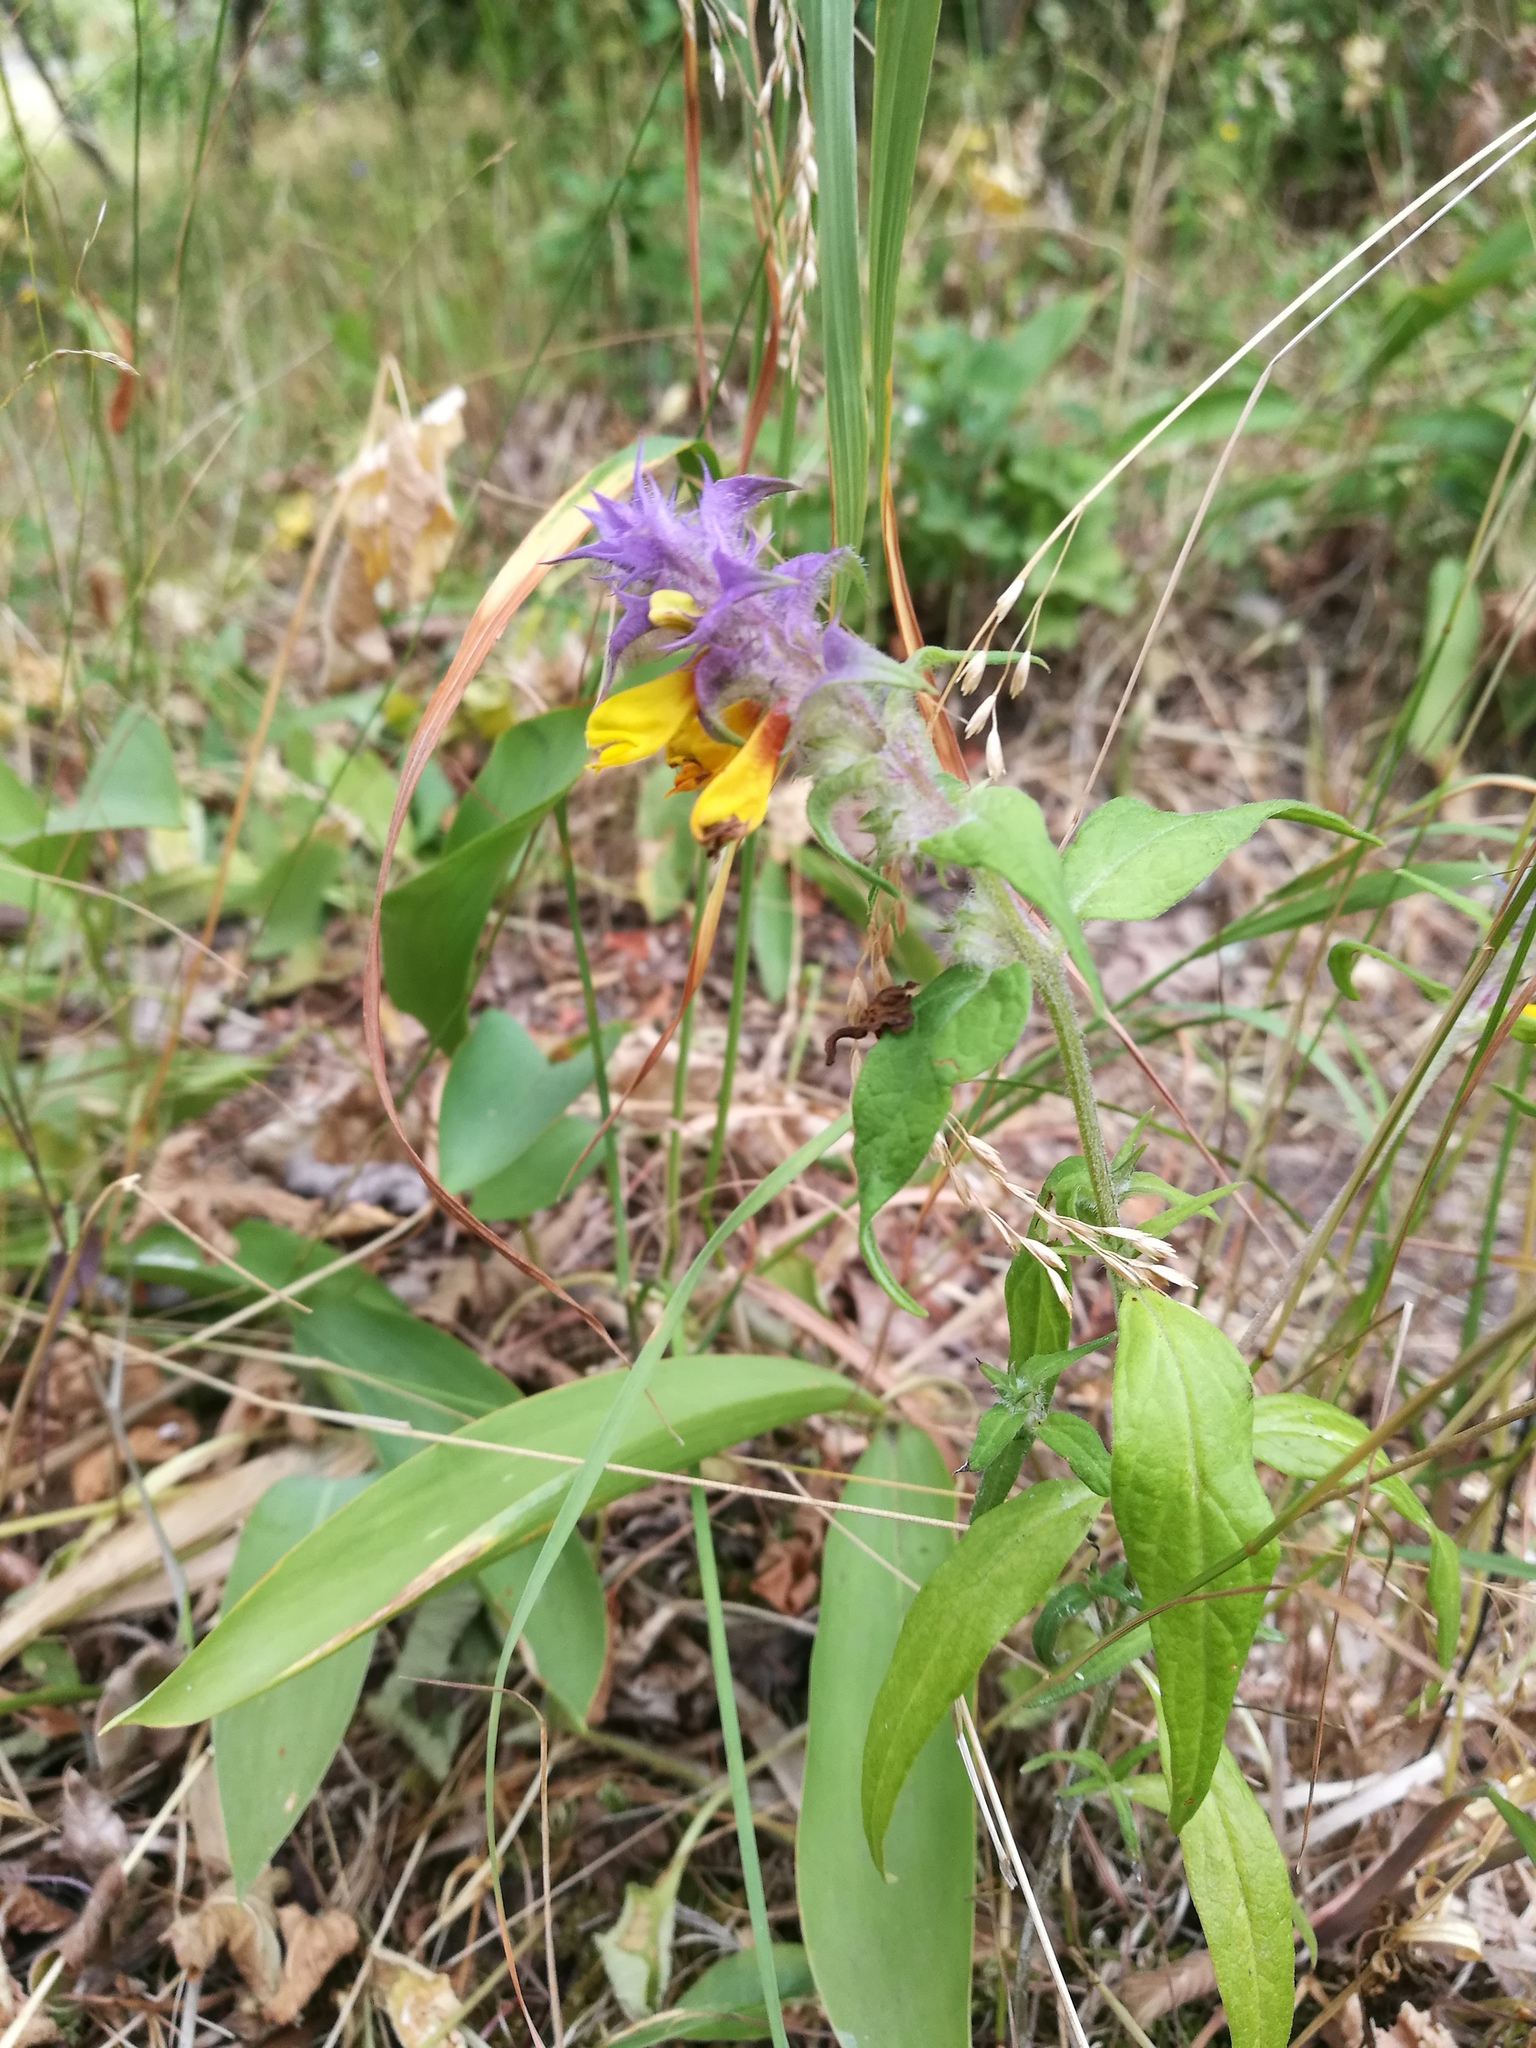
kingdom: Plantae
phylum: Tracheophyta
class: Magnoliopsida
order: Lamiales
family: Orobanchaceae
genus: Melampyrum
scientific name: Melampyrum nemorosum
